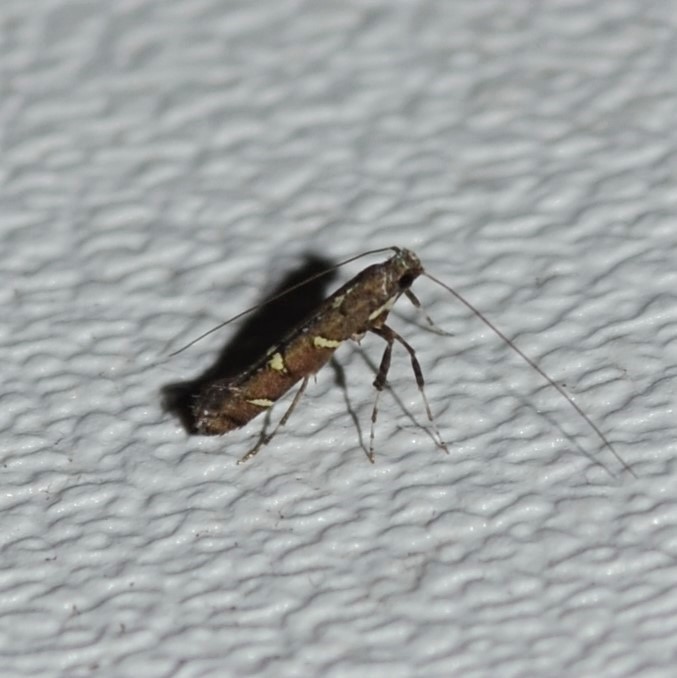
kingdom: Animalia
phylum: Arthropoda
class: Insecta
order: Lepidoptera
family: Gracillariidae
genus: Caloptilia
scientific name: Caloptilia triadicae
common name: Tallow leaf roller
